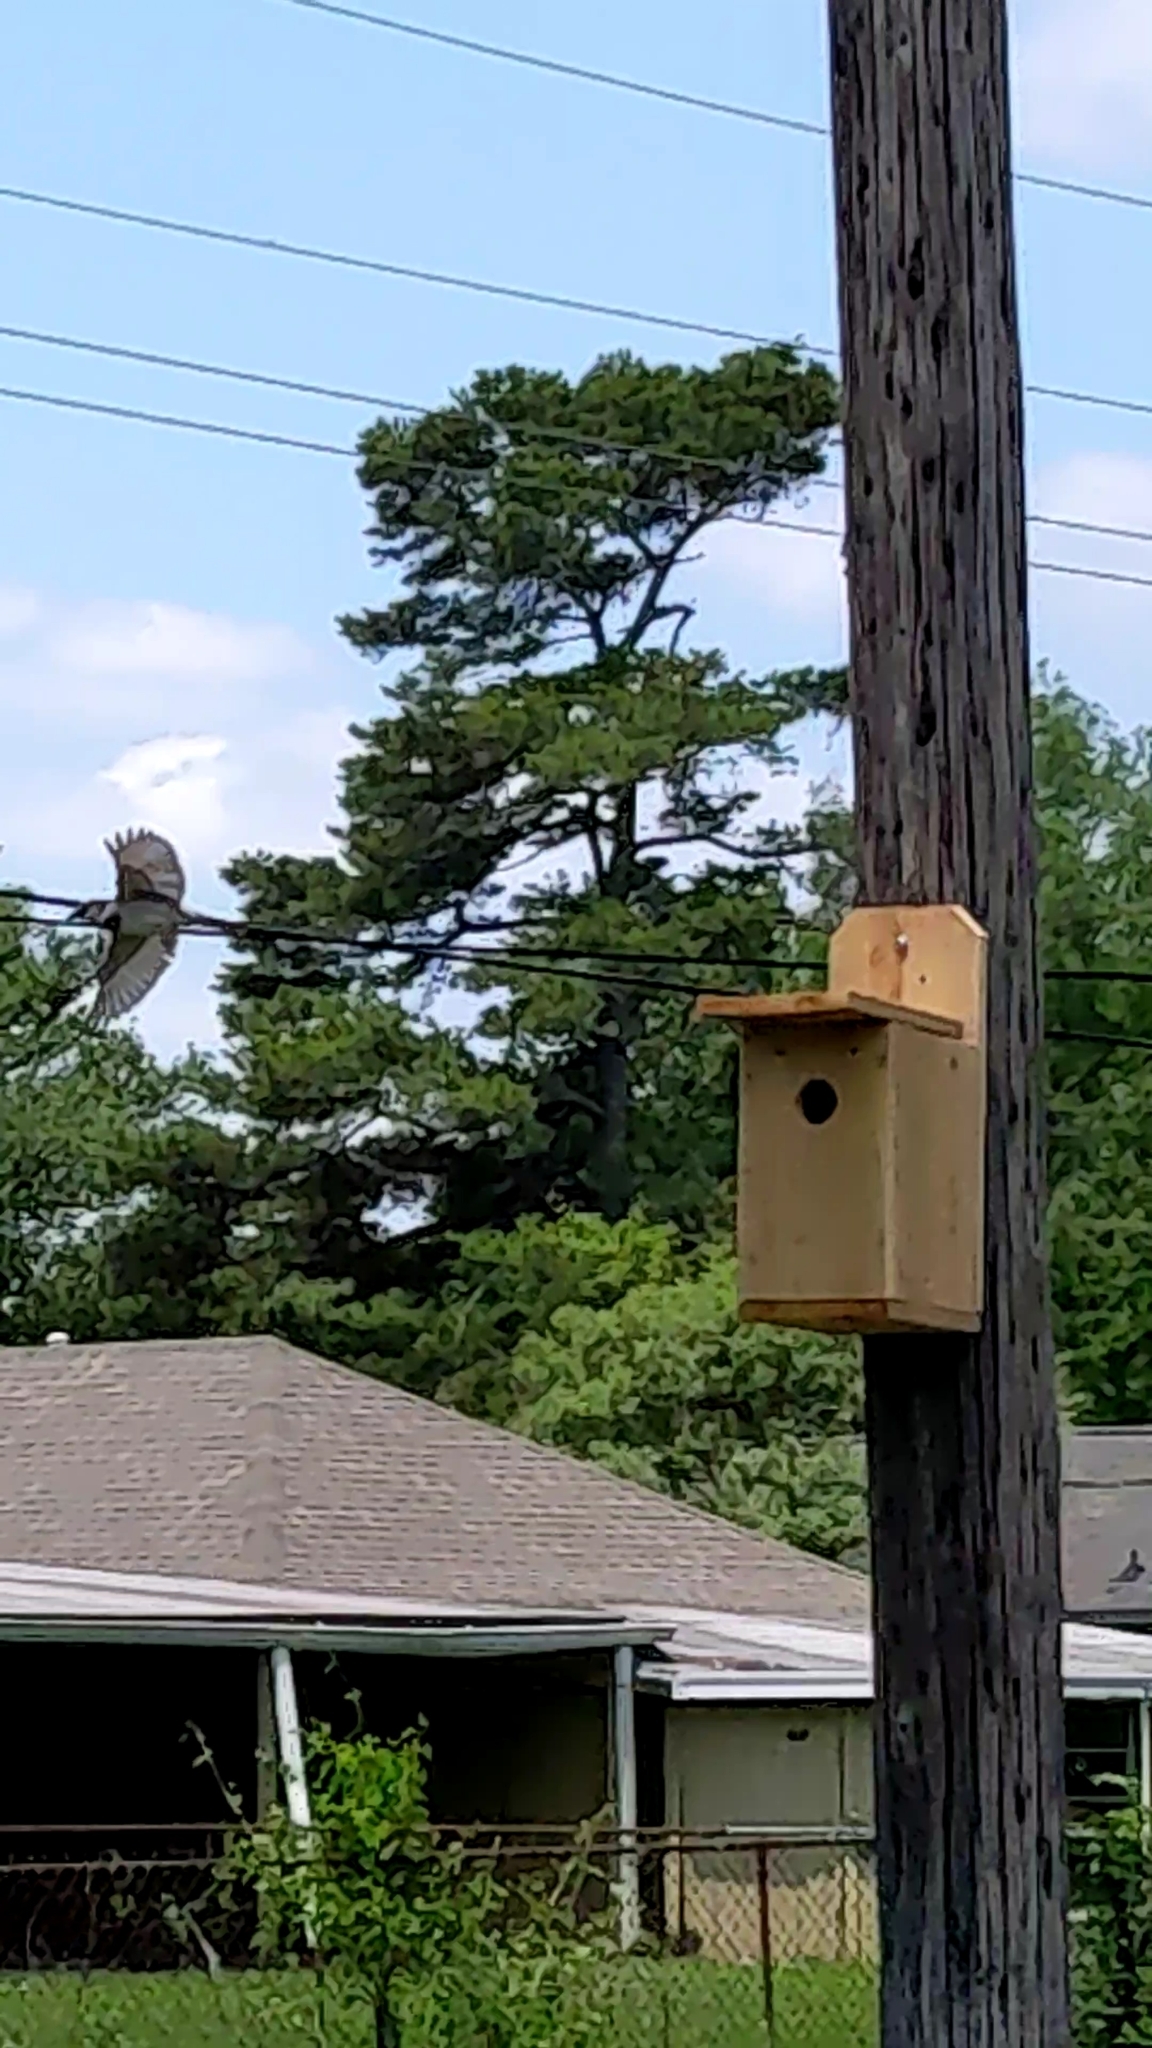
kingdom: Animalia
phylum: Chordata
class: Aves
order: Passeriformes
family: Passeridae
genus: Passer
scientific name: Passer domesticus
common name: House sparrow
